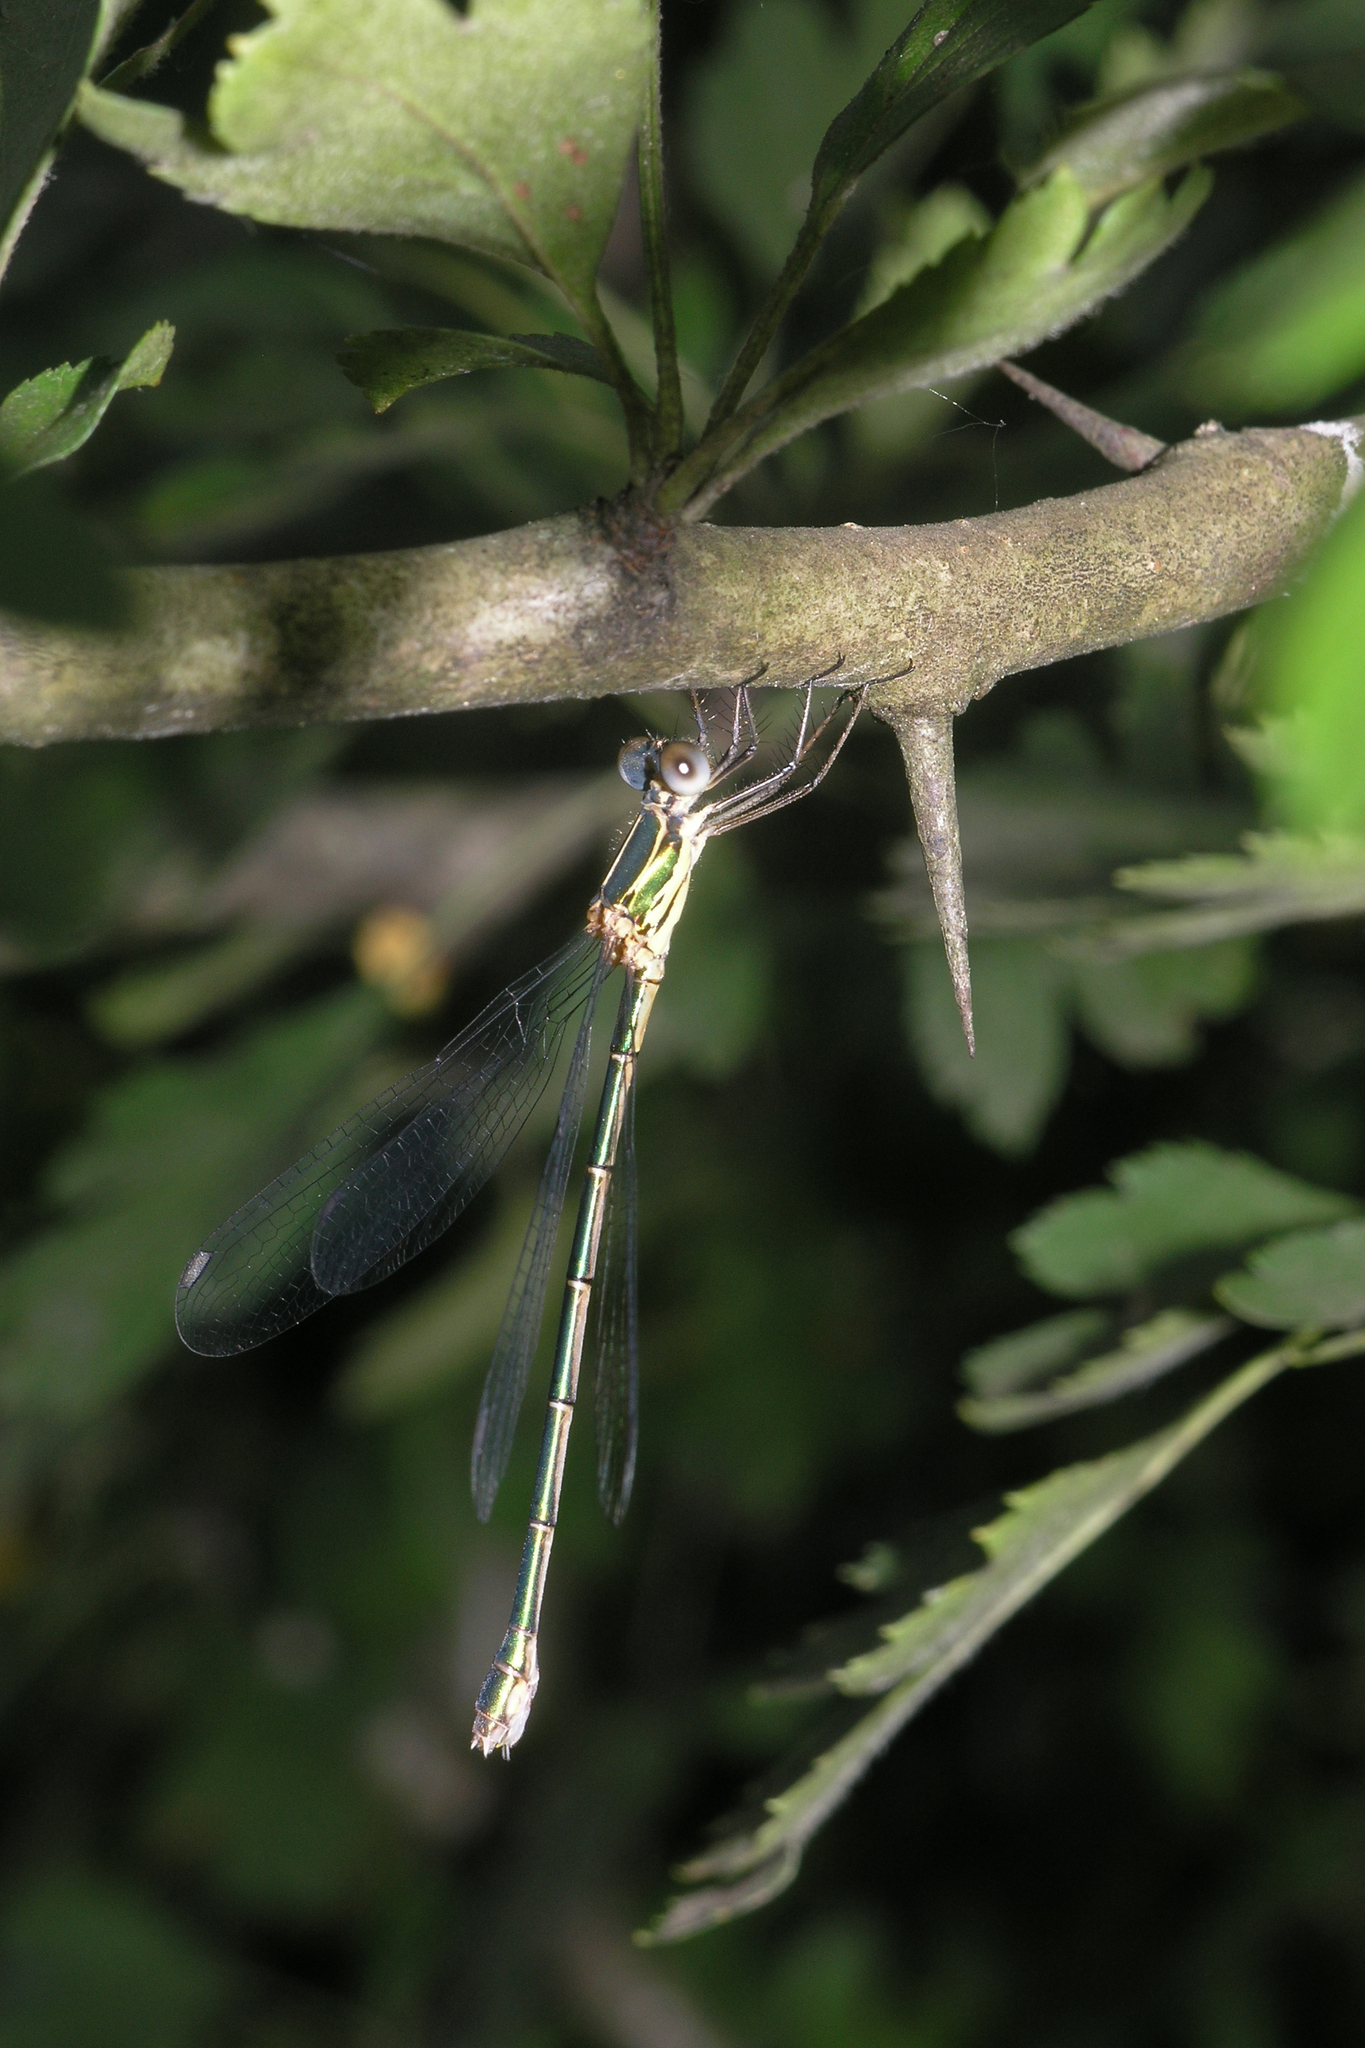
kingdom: Animalia
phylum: Arthropoda
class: Insecta
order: Odonata
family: Lestidae
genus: Chalcolestes
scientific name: Chalcolestes parvidens
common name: Eastern willow spreadwing
